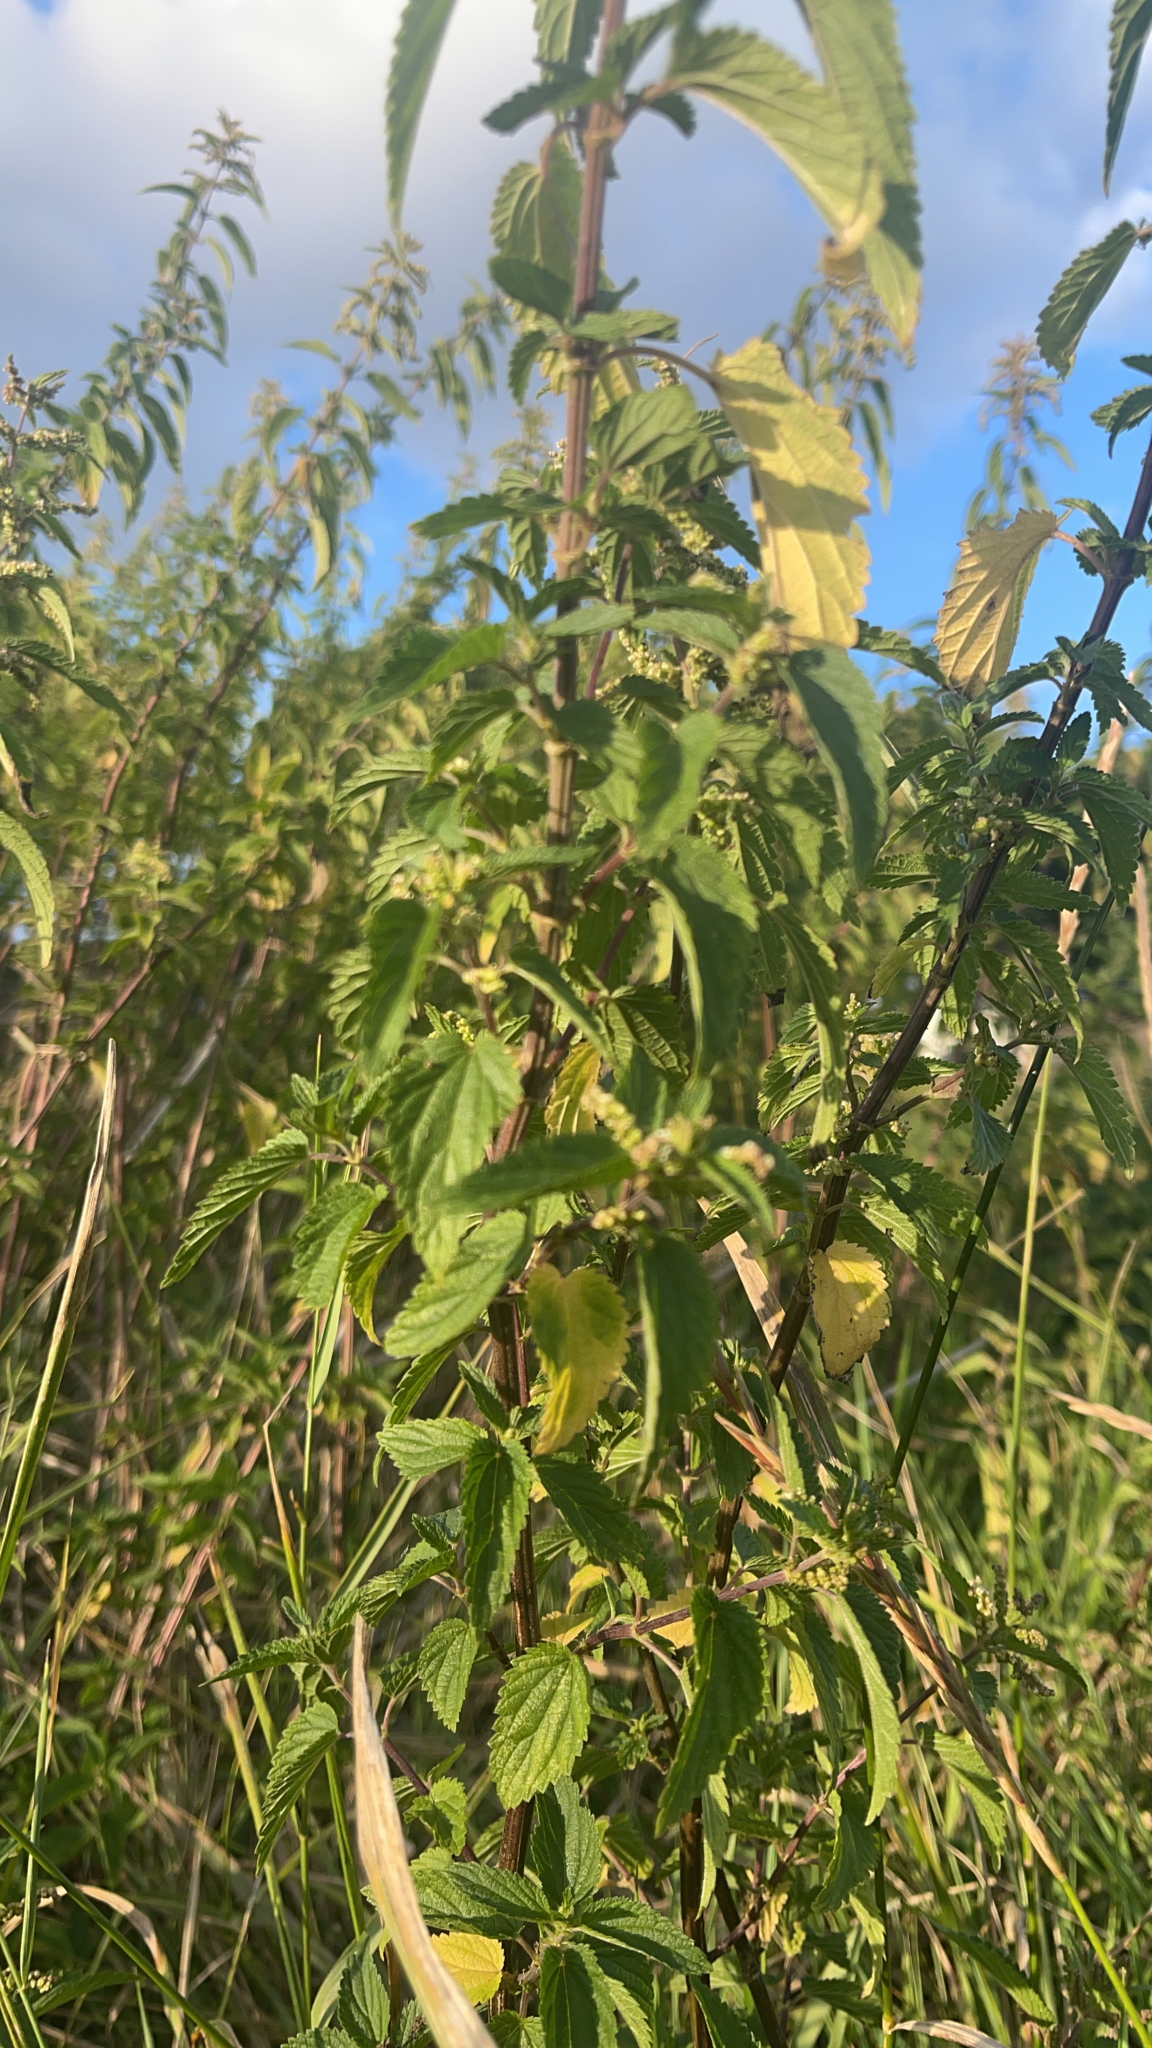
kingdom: Plantae
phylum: Tracheophyta
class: Magnoliopsida
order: Rosales
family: Urticaceae
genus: Urtica
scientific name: Urtica dioica
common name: Common nettle
